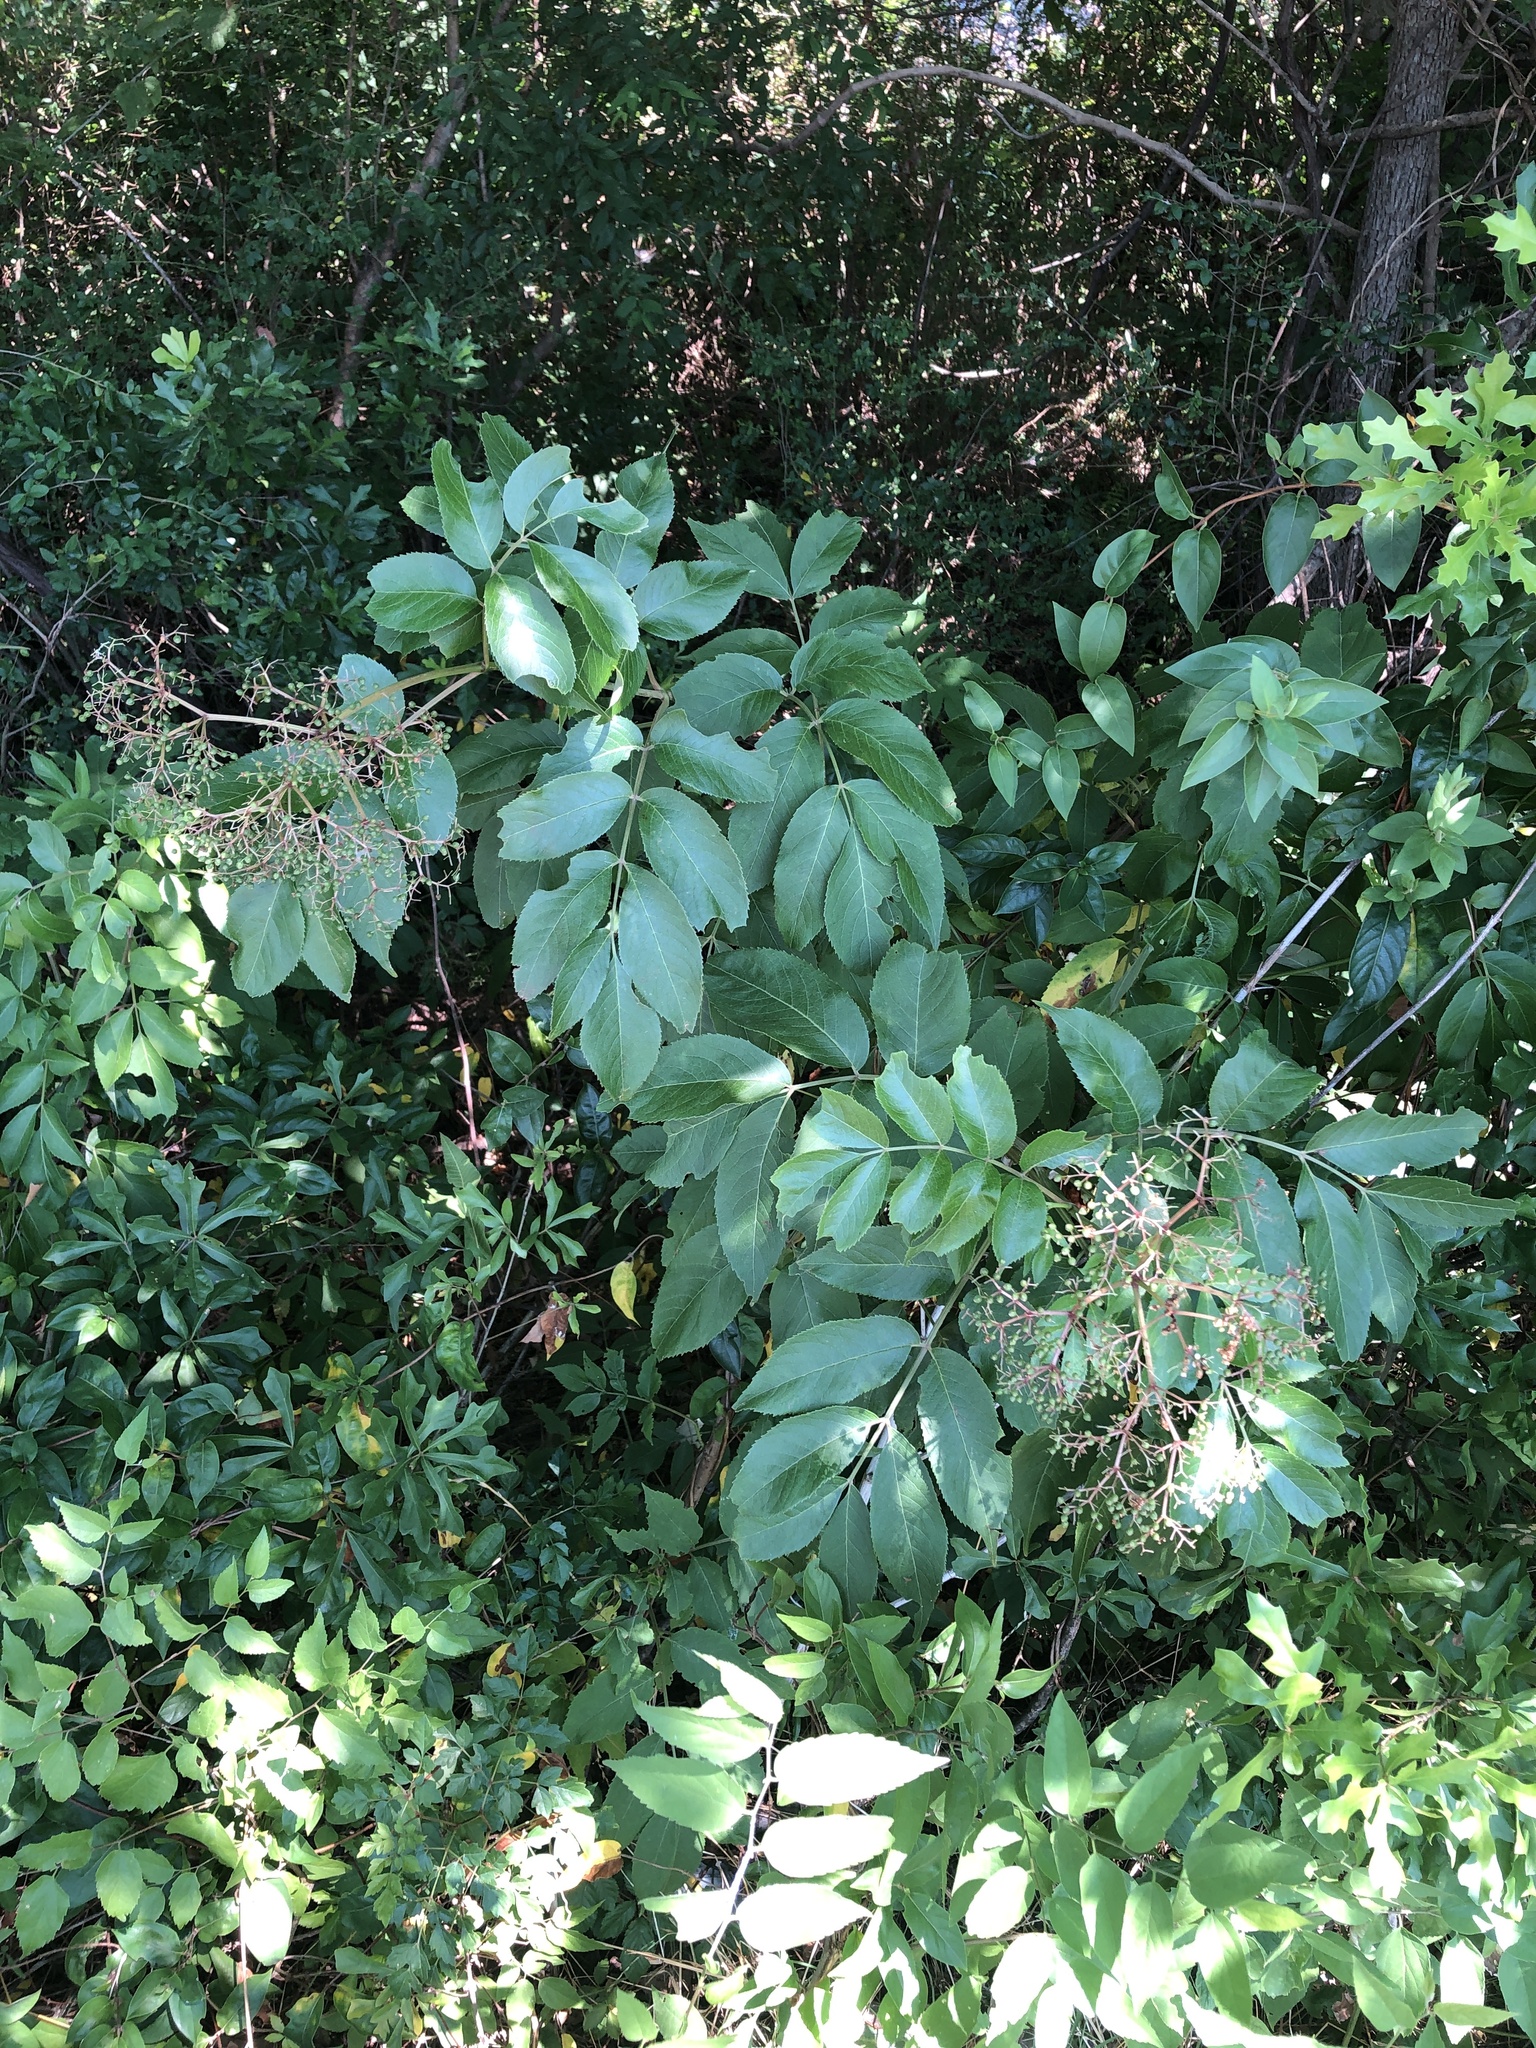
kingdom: Plantae
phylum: Tracheophyta
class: Magnoliopsida
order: Dipsacales
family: Viburnaceae
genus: Sambucus
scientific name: Sambucus canadensis
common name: American elder
